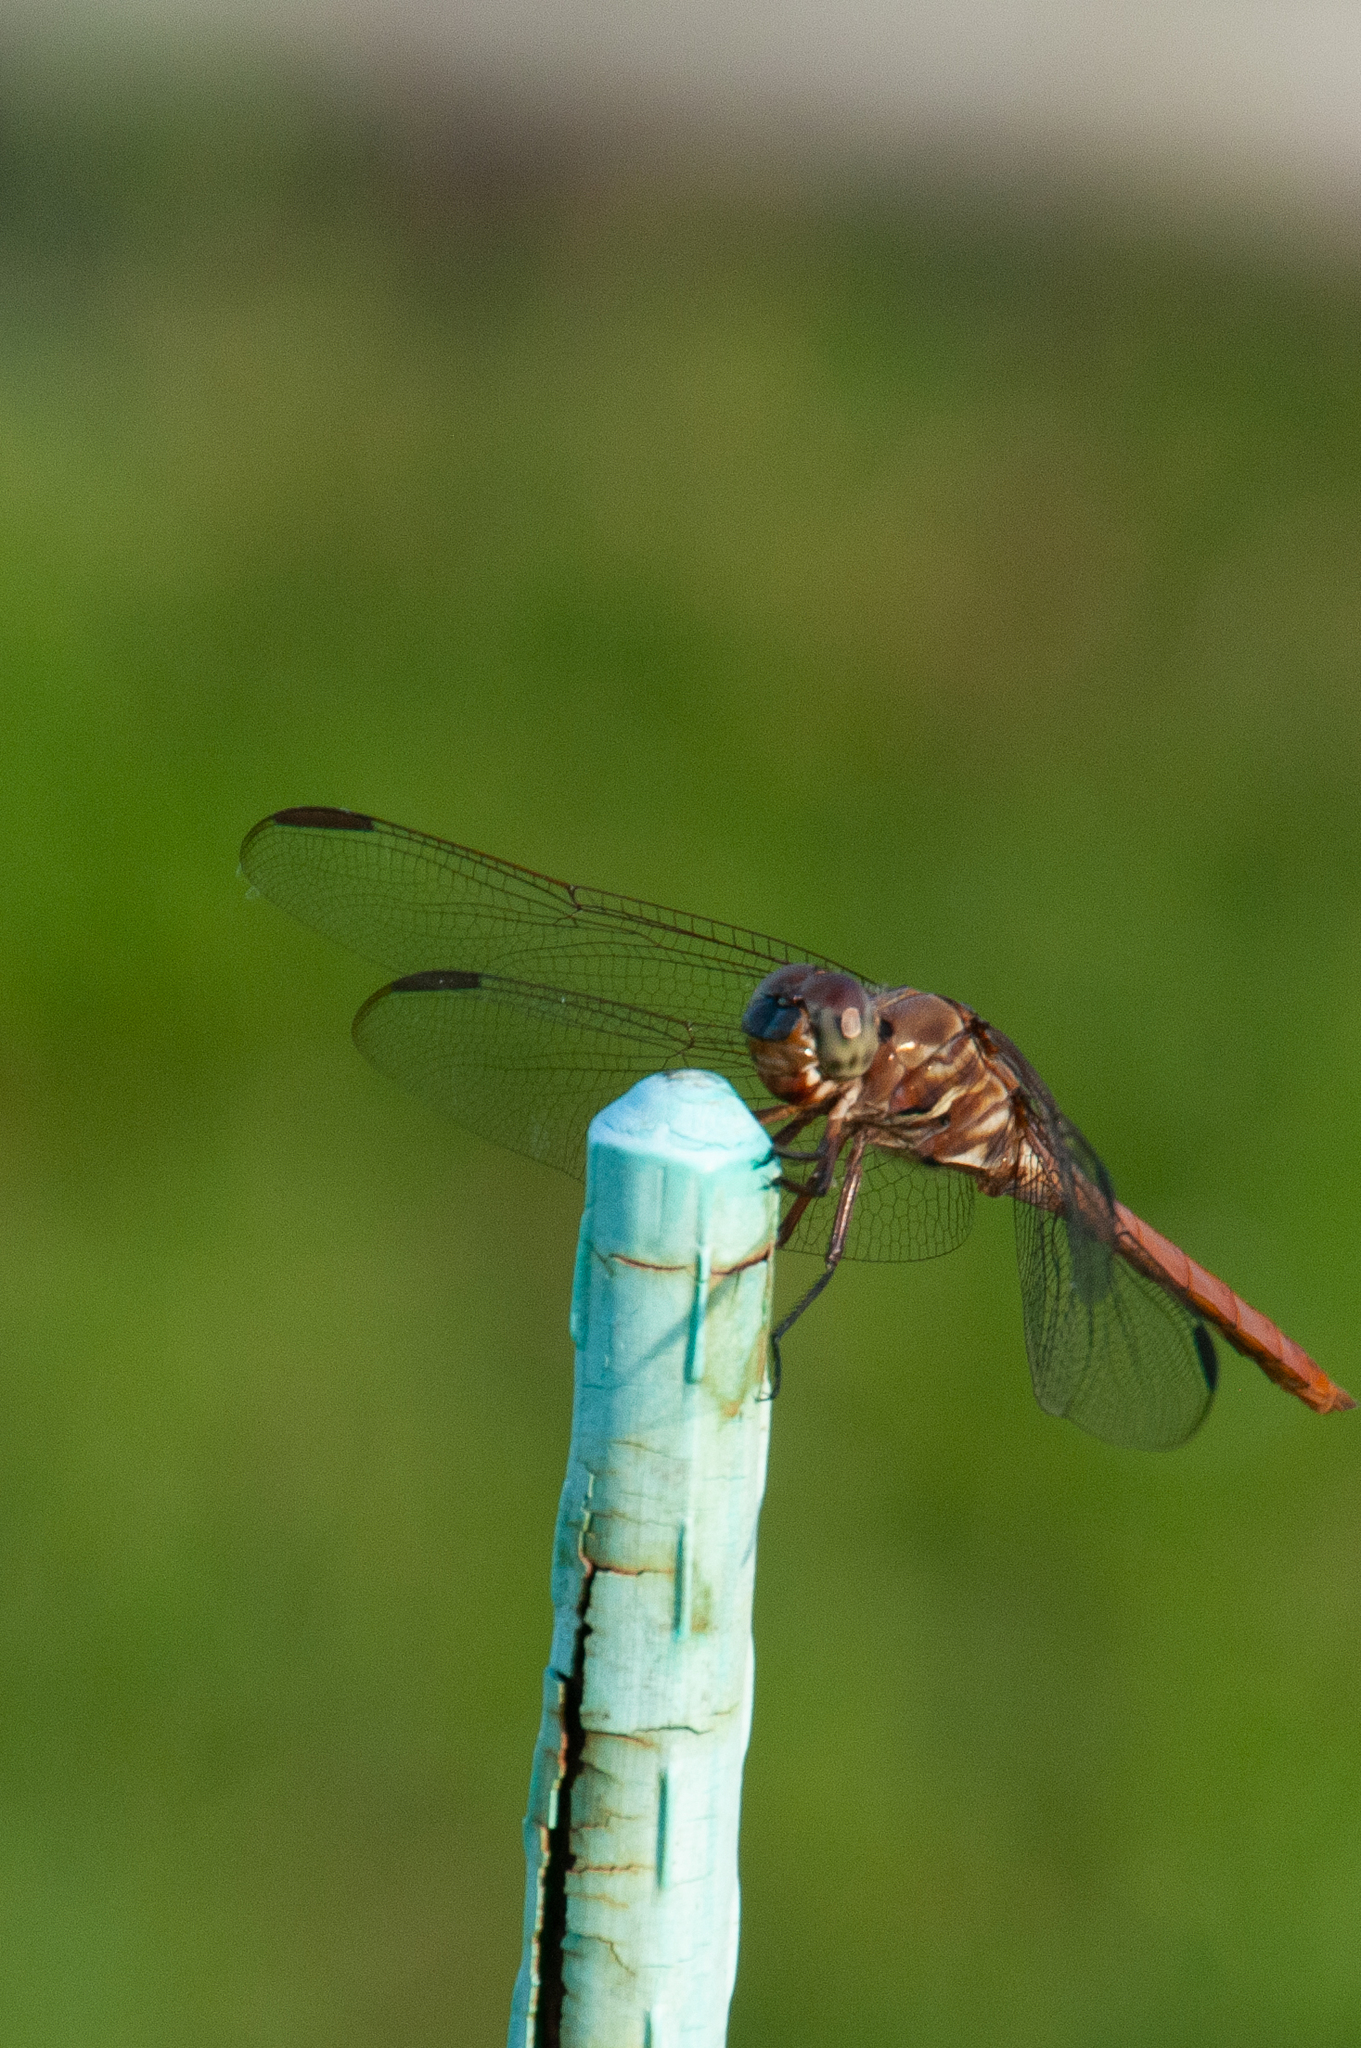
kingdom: Animalia
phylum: Arthropoda
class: Insecta
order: Odonata
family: Libellulidae
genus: Orthemis
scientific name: Orthemis ferruginea
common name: Roseate skimmer
